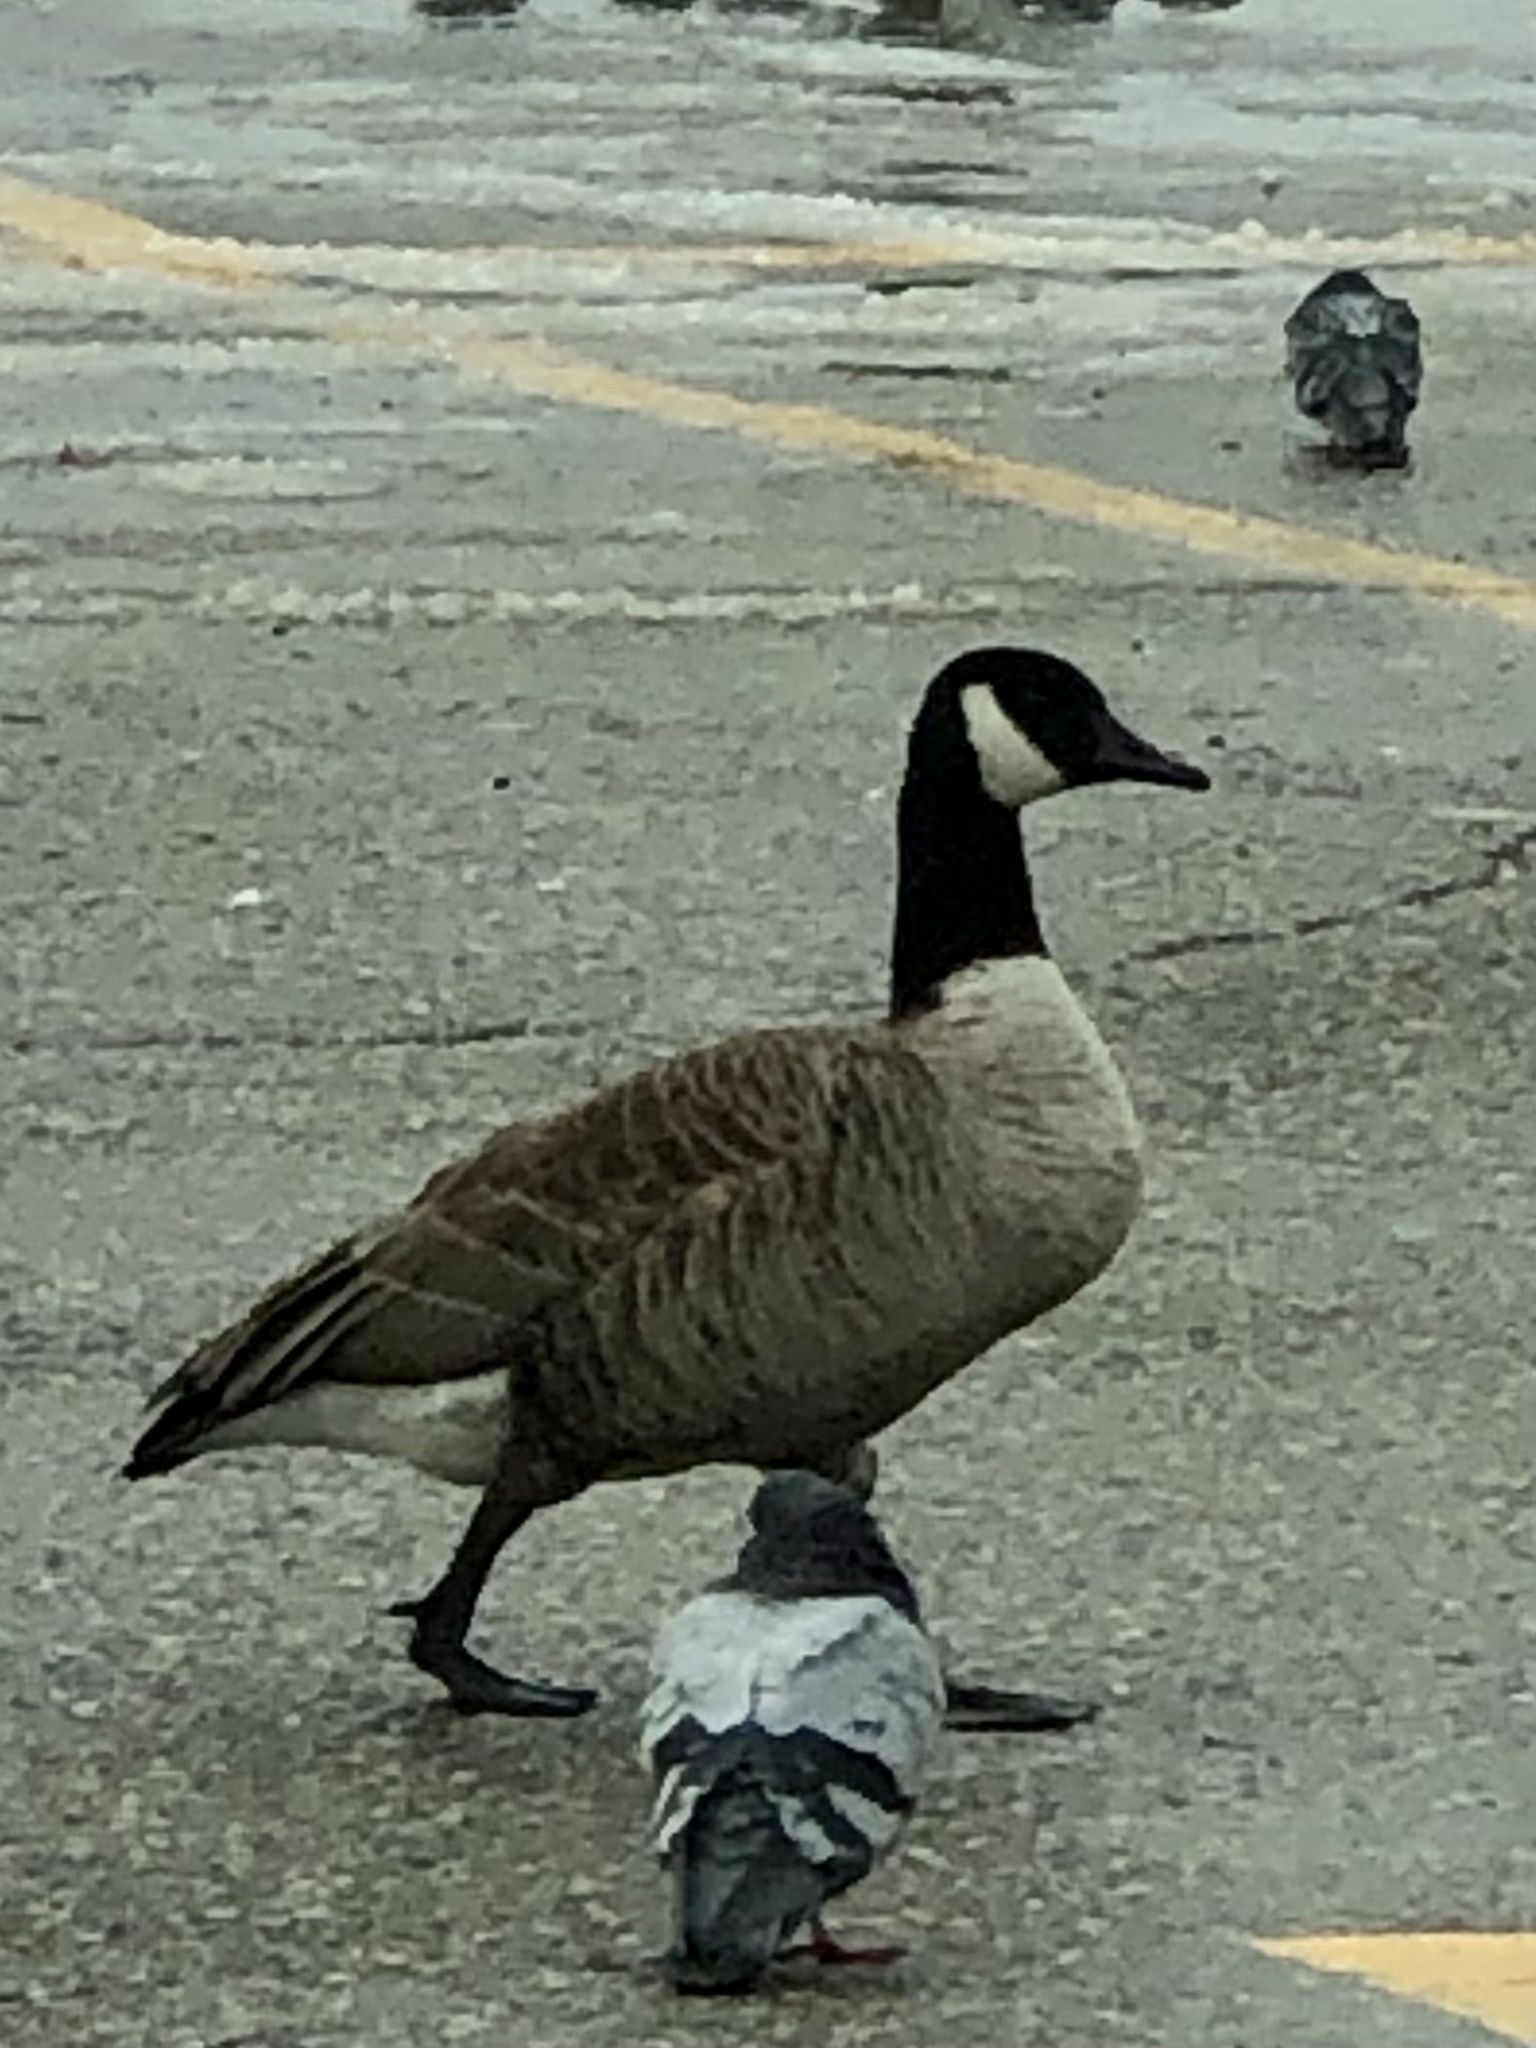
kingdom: Animalia
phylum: Chordata
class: Aves
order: Anseriformes
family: Anatidae
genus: Branta
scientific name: Branta canadensis
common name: Canada goose
